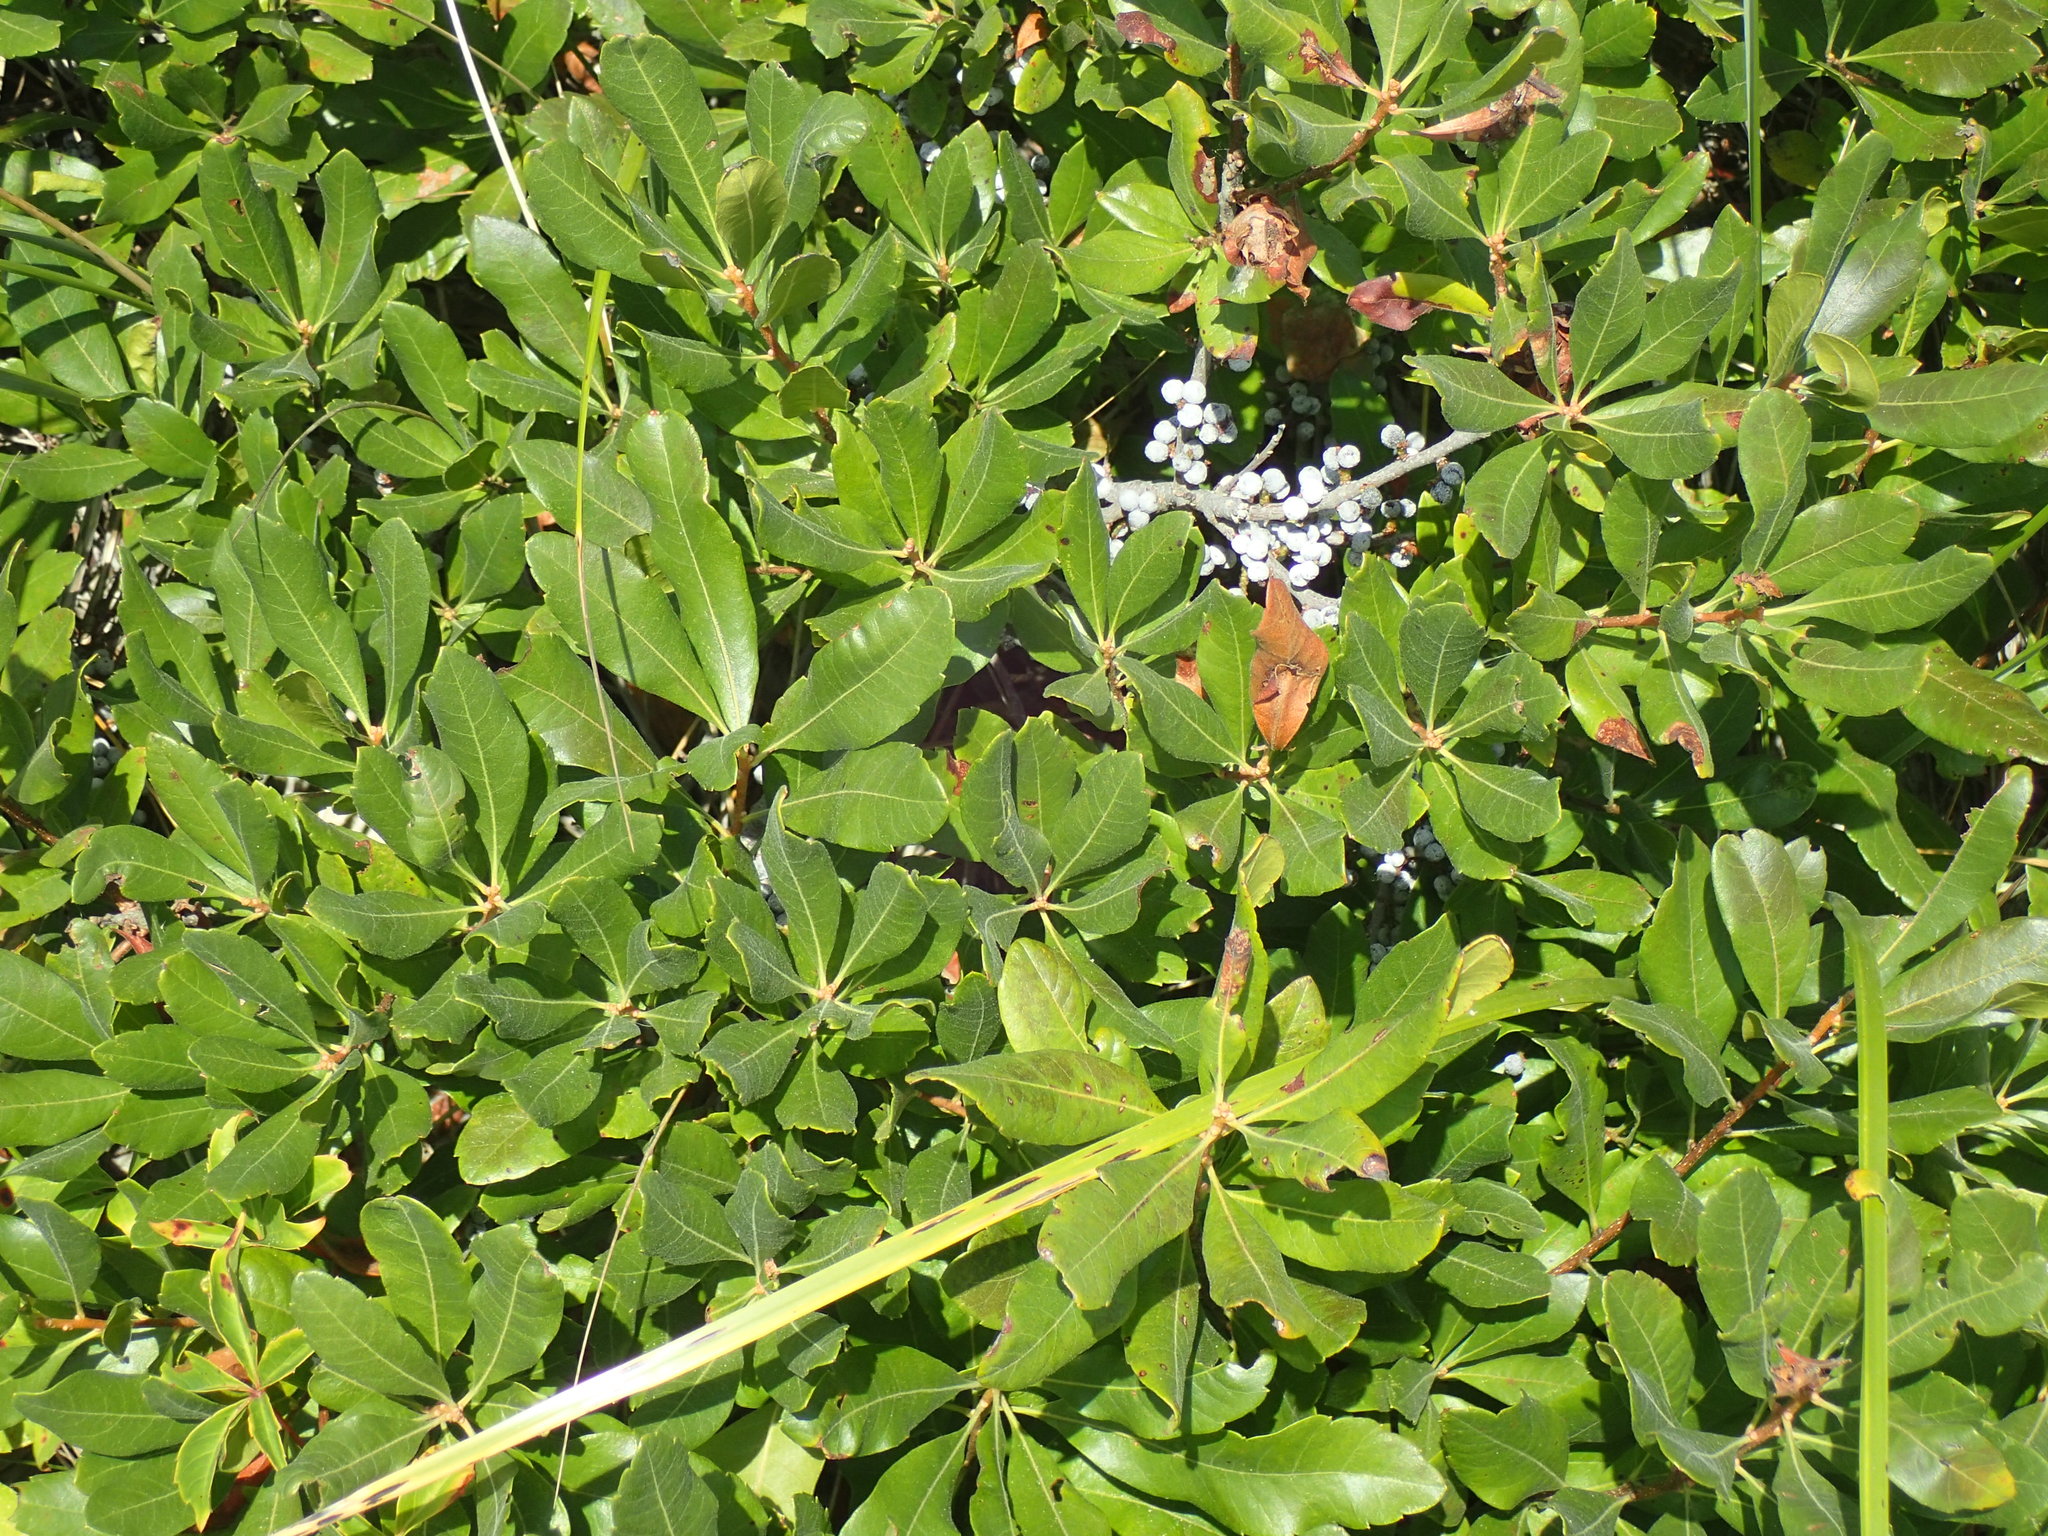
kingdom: Plantae
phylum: Tracheophyta
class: Magnoliopsida
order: Fagales
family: Myricaceae
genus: Morella
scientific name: Morella pensylvanica
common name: Northern bayberry
